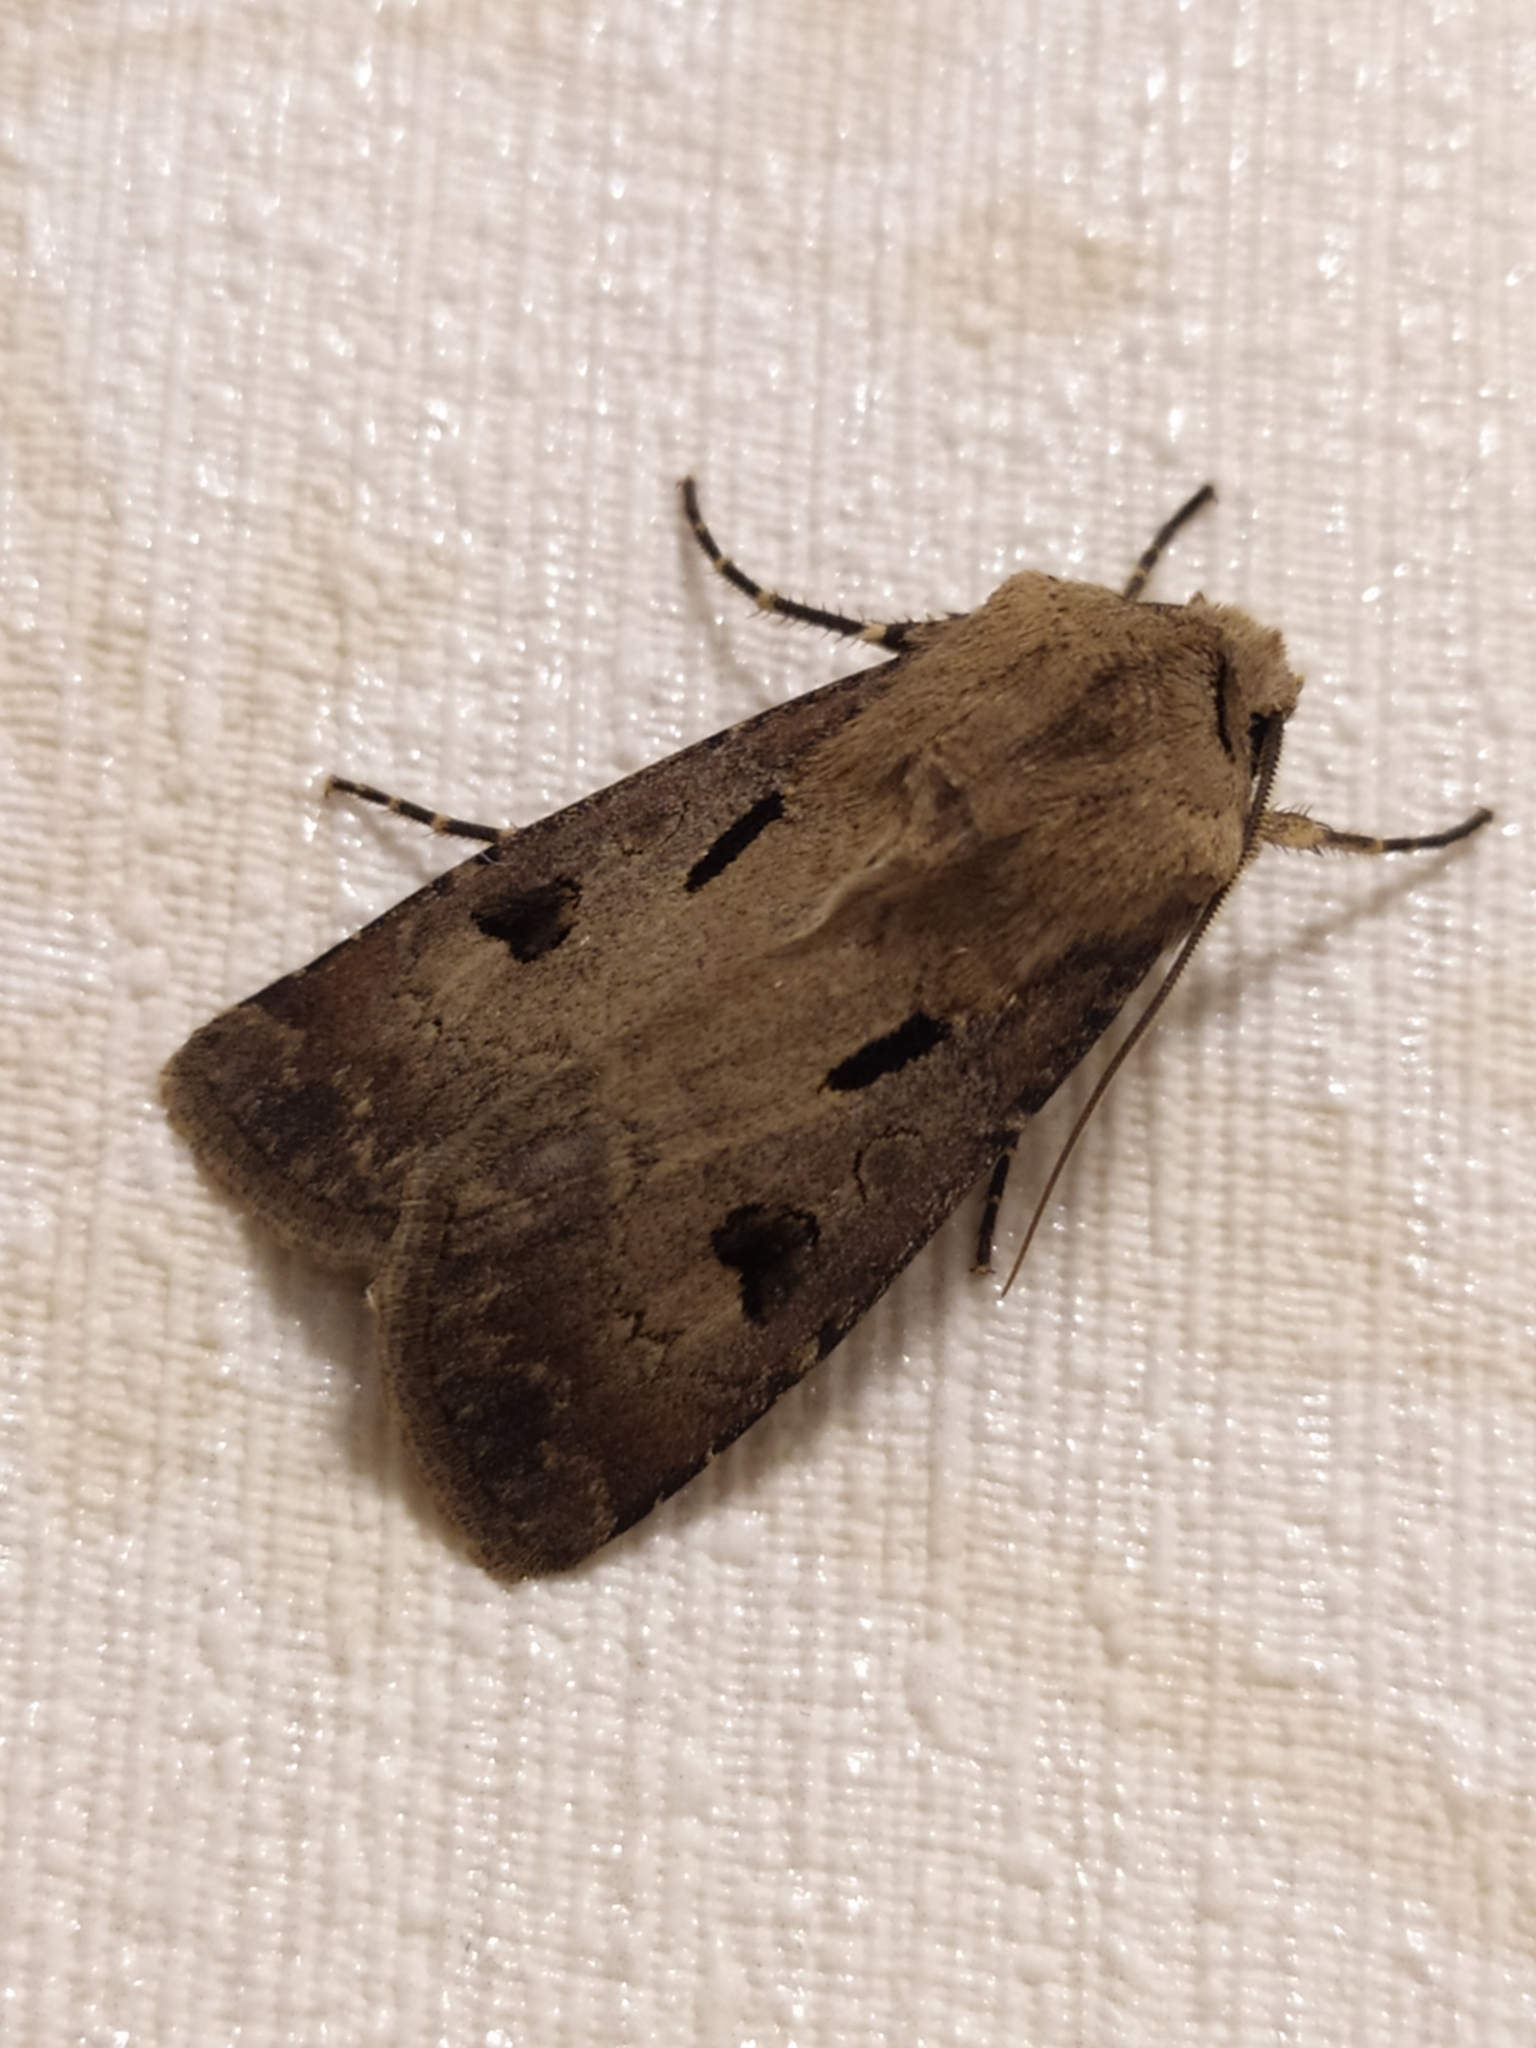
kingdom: Animalia
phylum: Arthropoda
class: Insecta
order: Lepidoptera
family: Noctuidae
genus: Agrotis
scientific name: Agrotis exclamationis
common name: Heart and dart
